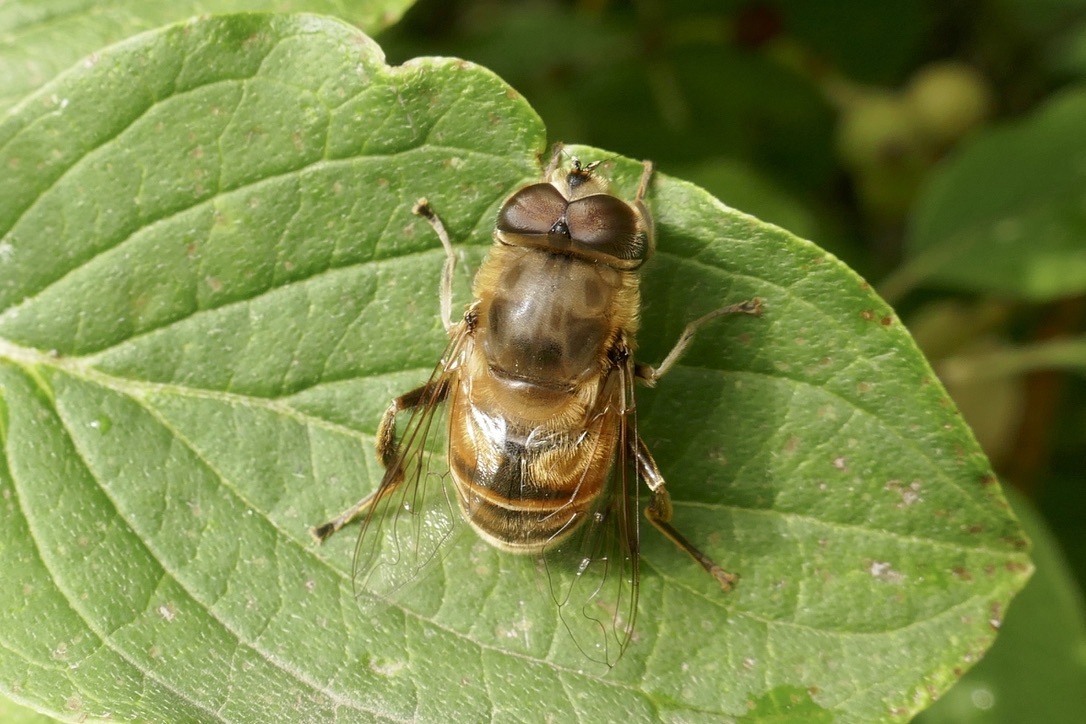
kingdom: Animalia
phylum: Arthropoda
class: Insecta
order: Diptera
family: Syrphidae
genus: Eristalis
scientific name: Eristalis tenax
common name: Drone fly
